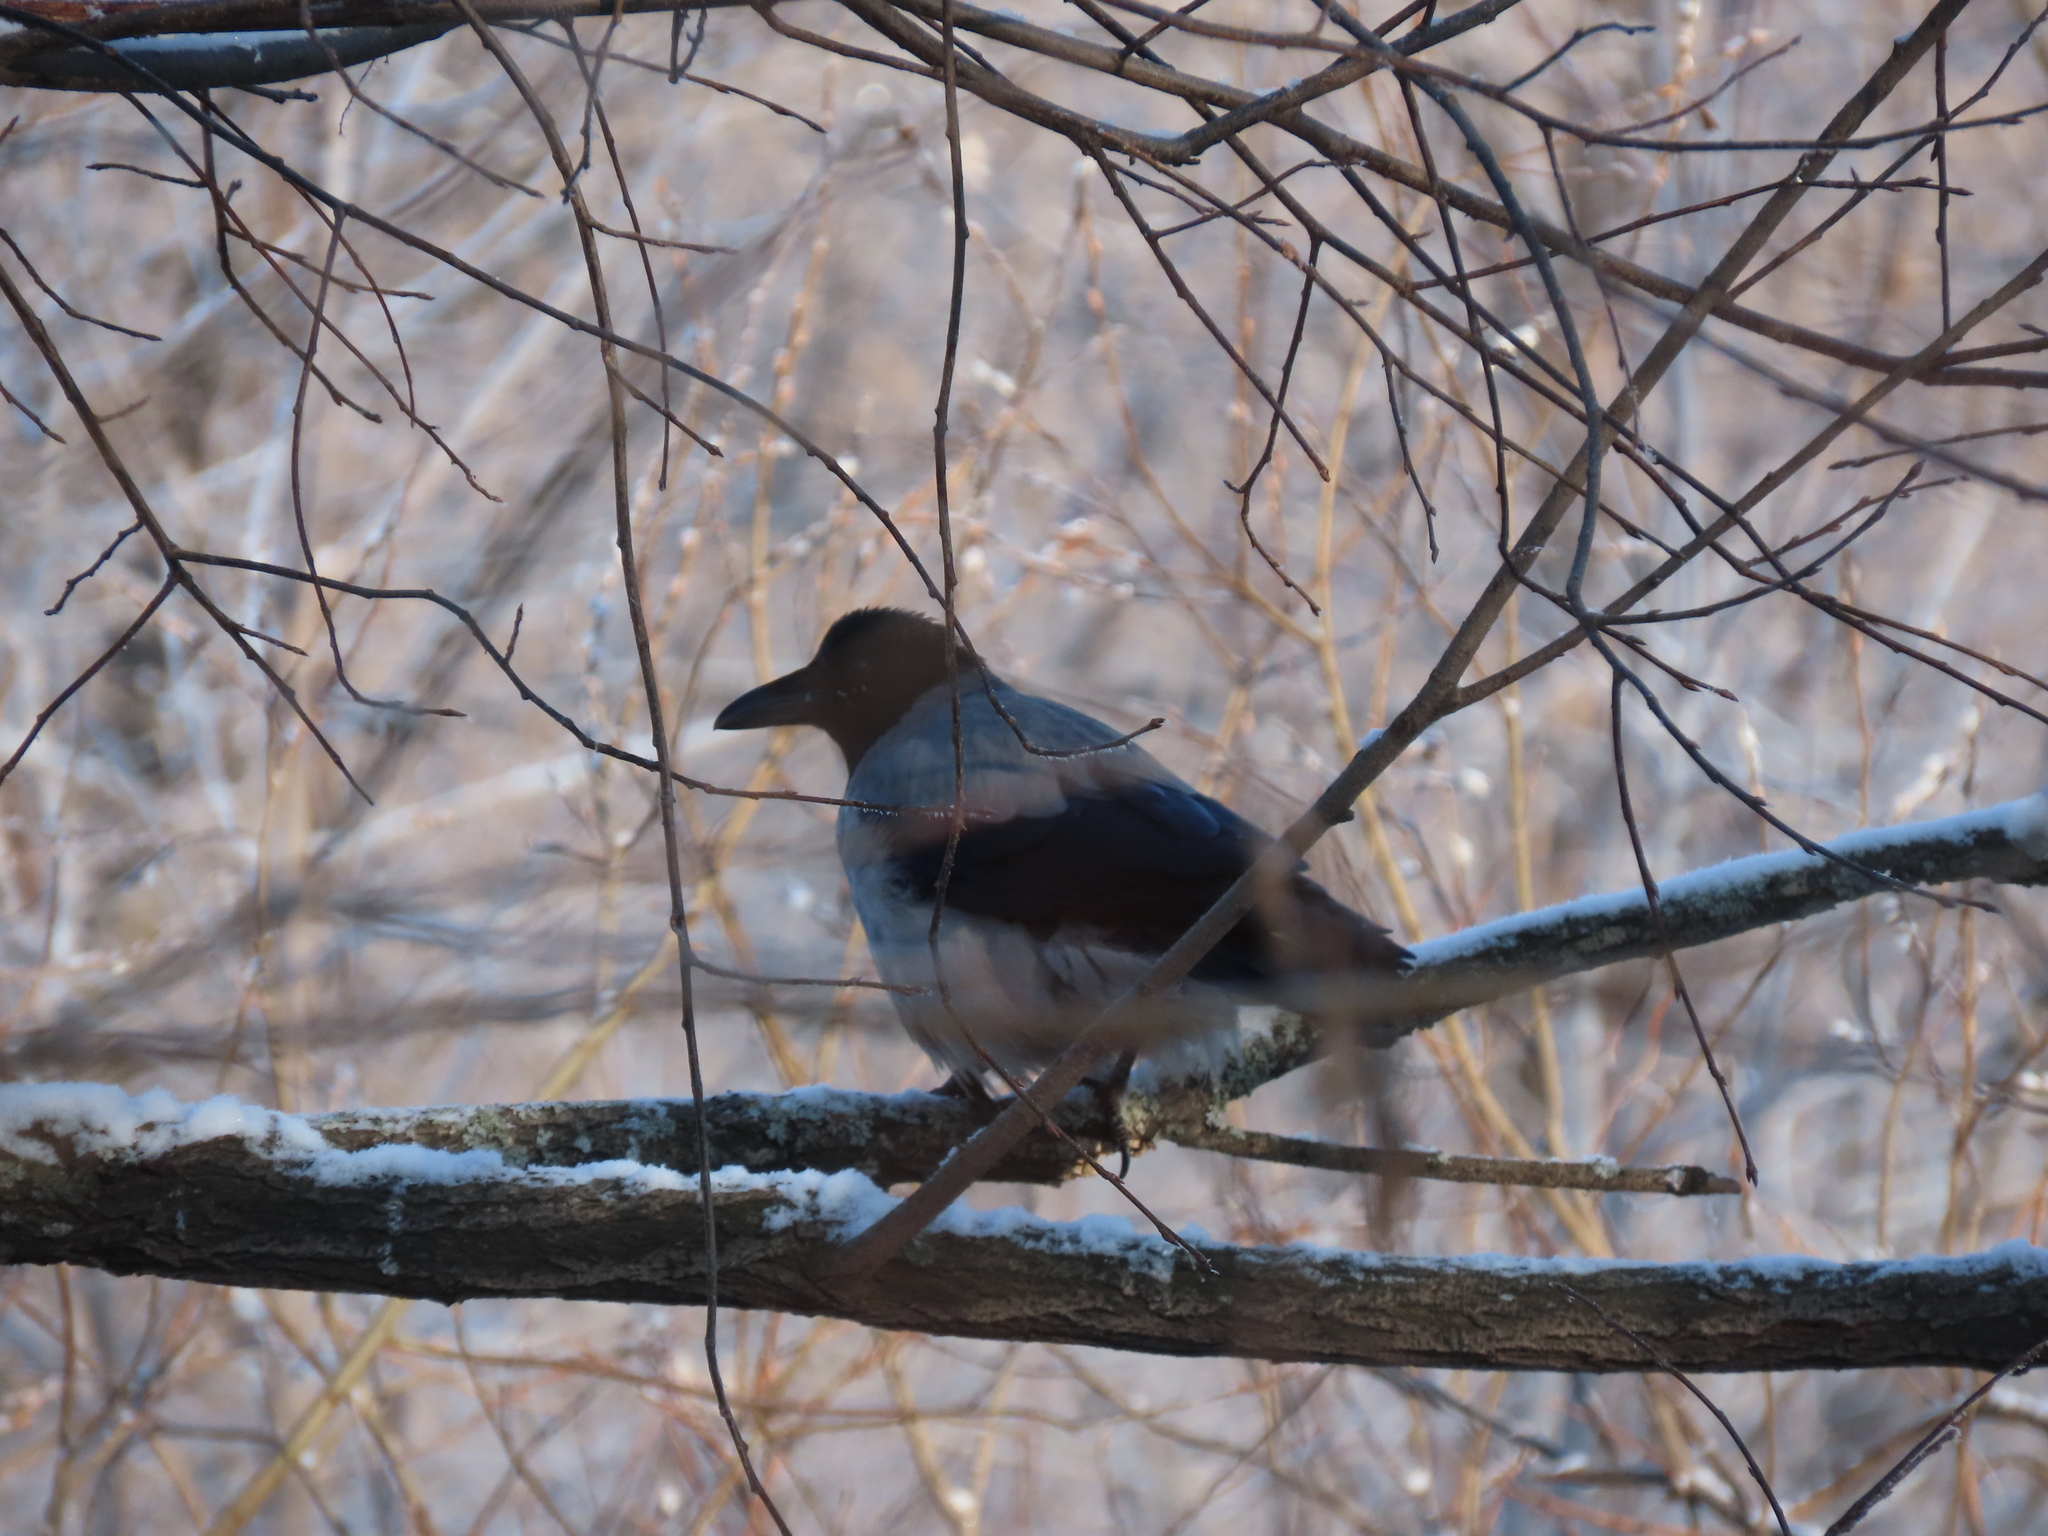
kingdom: Animalia
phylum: Chordata
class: Aves
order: Passeriformes
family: Corvidae
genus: Corvus
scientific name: Corvus cornix
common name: Hooded crow
